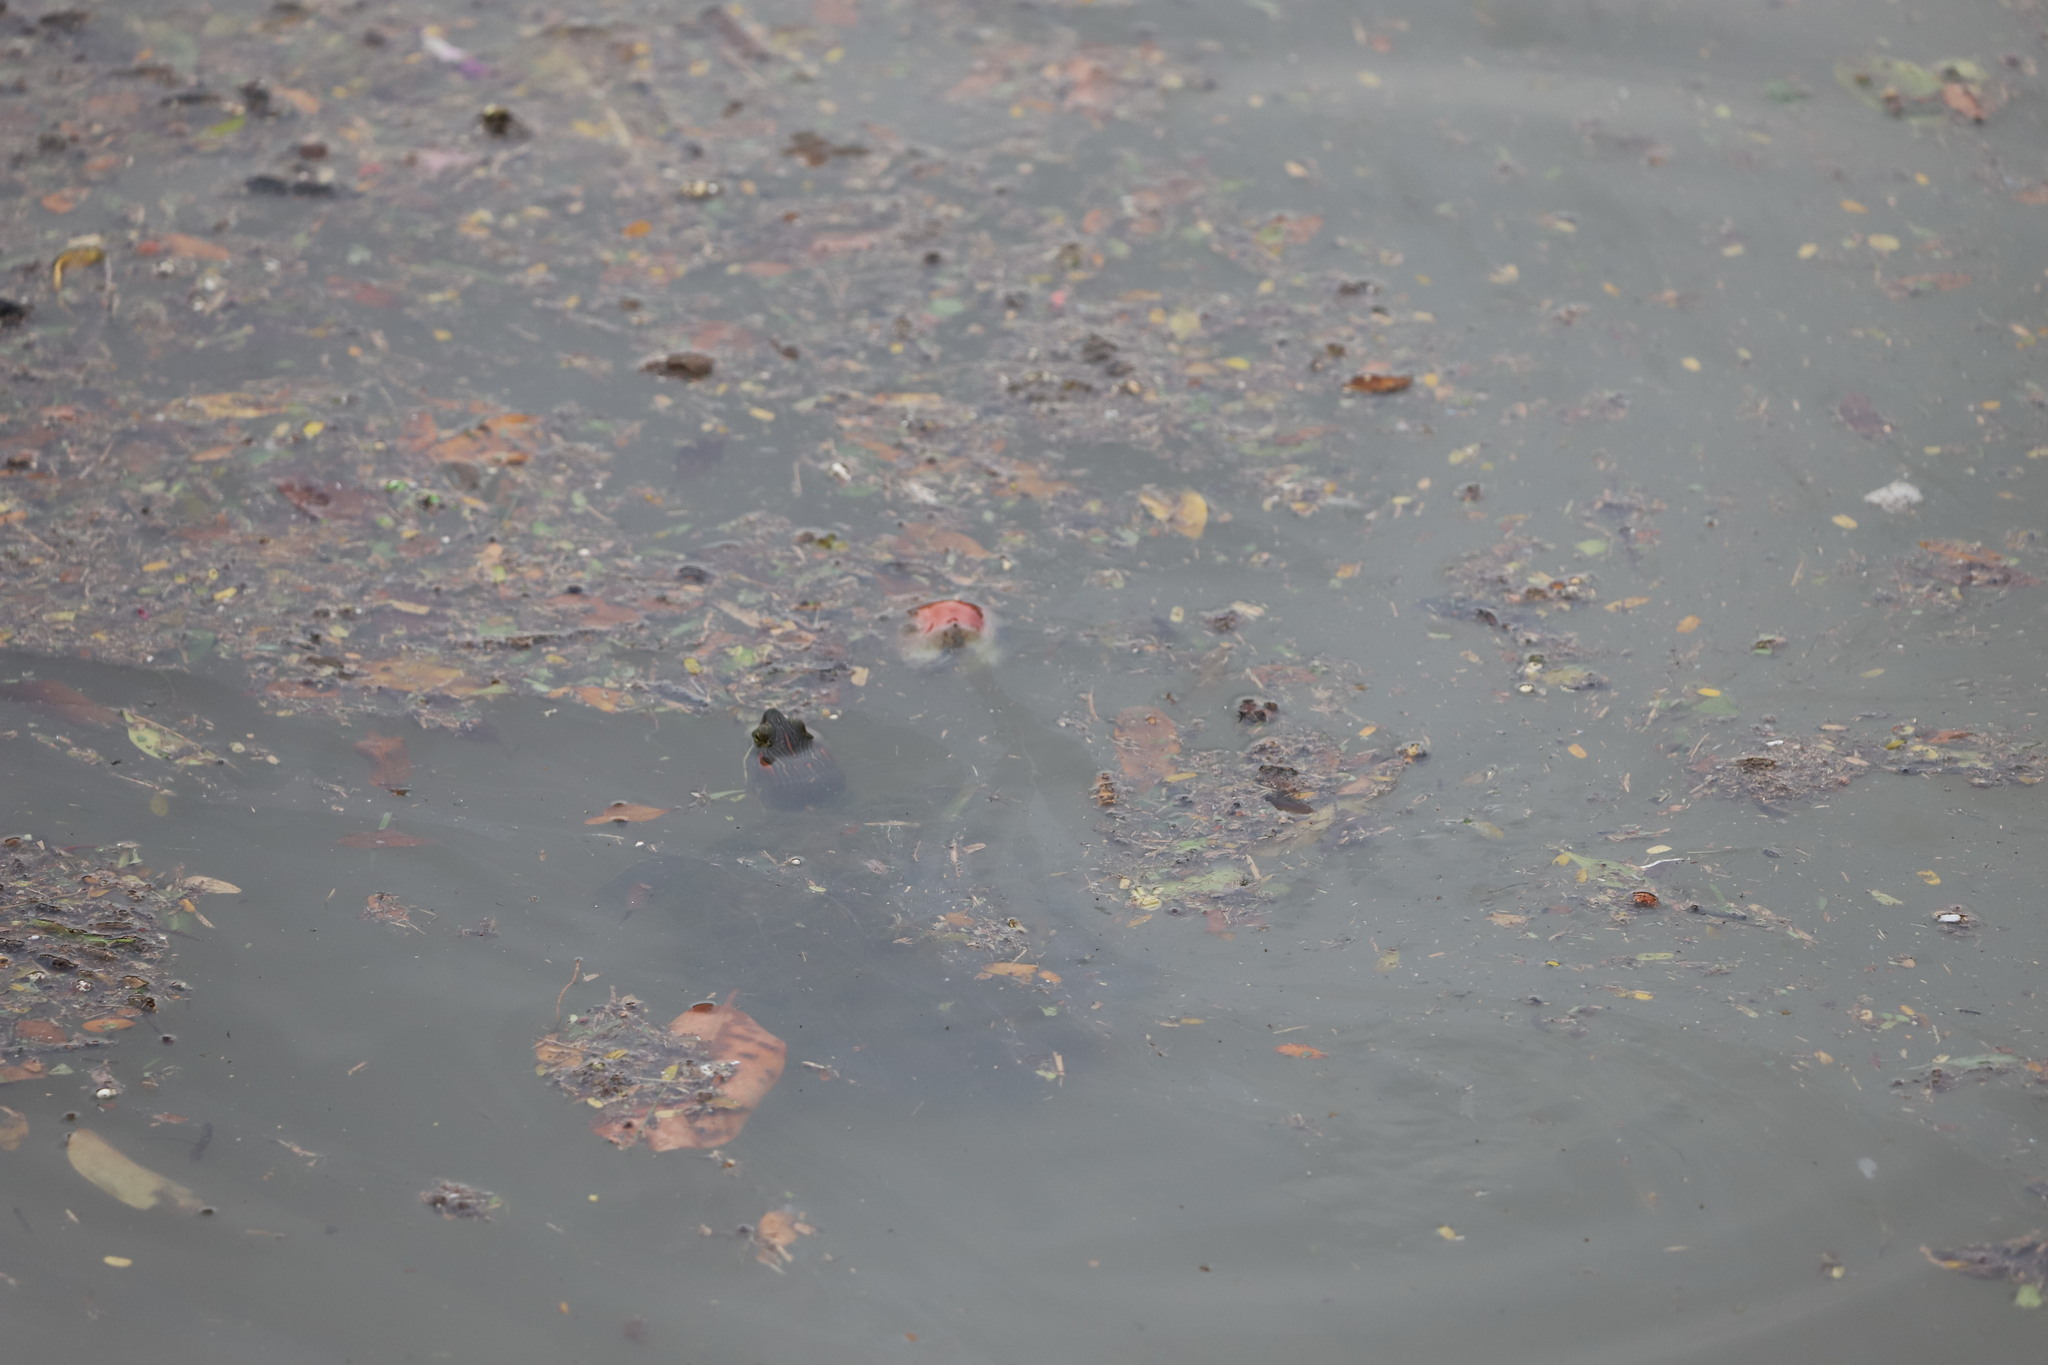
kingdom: Animalia
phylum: Chordata
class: Testudines
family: Emydidae
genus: Trachemys
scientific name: Trachemys scripta
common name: Slider
